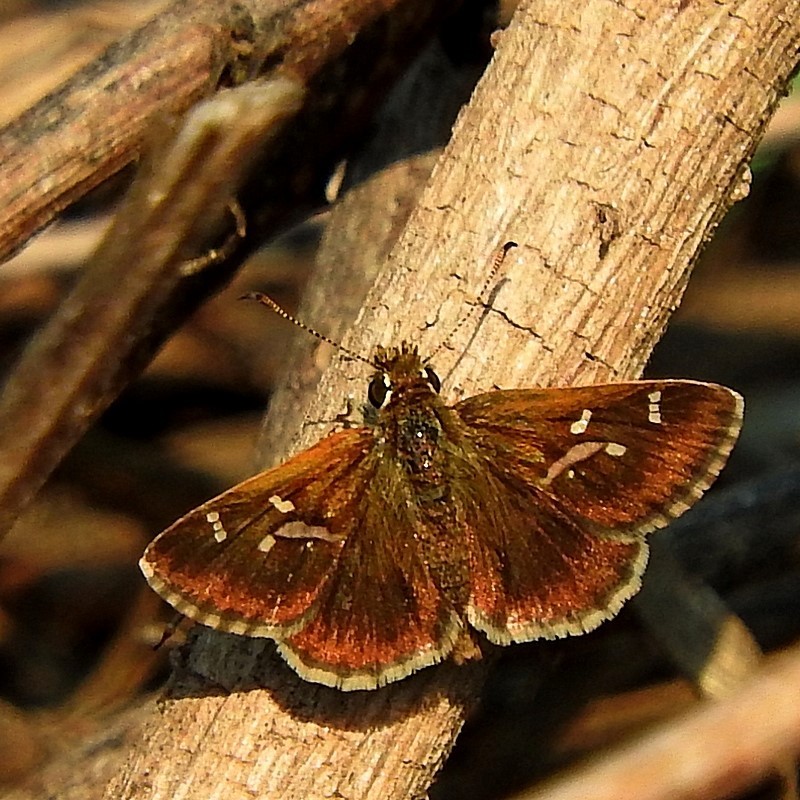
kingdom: Animalia
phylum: Arthropoda
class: Insecta
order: Lepidoptera
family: Hesperiidae
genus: Toxidia
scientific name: Toxidia parvulus
